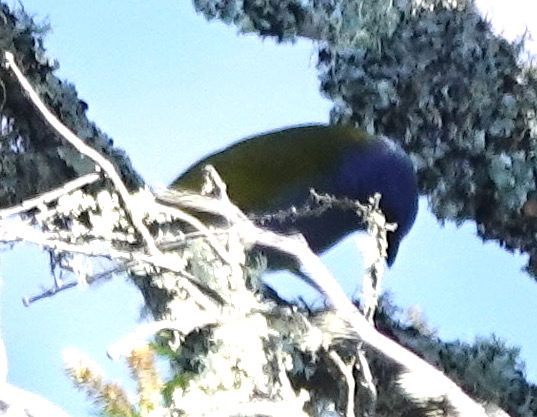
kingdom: Animalia
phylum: Chordata
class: Aves
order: Passeriformes
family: Thraupidae
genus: Sporathraupis
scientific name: Sporathraupis cyanocephala
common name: Blue-capped tanager
